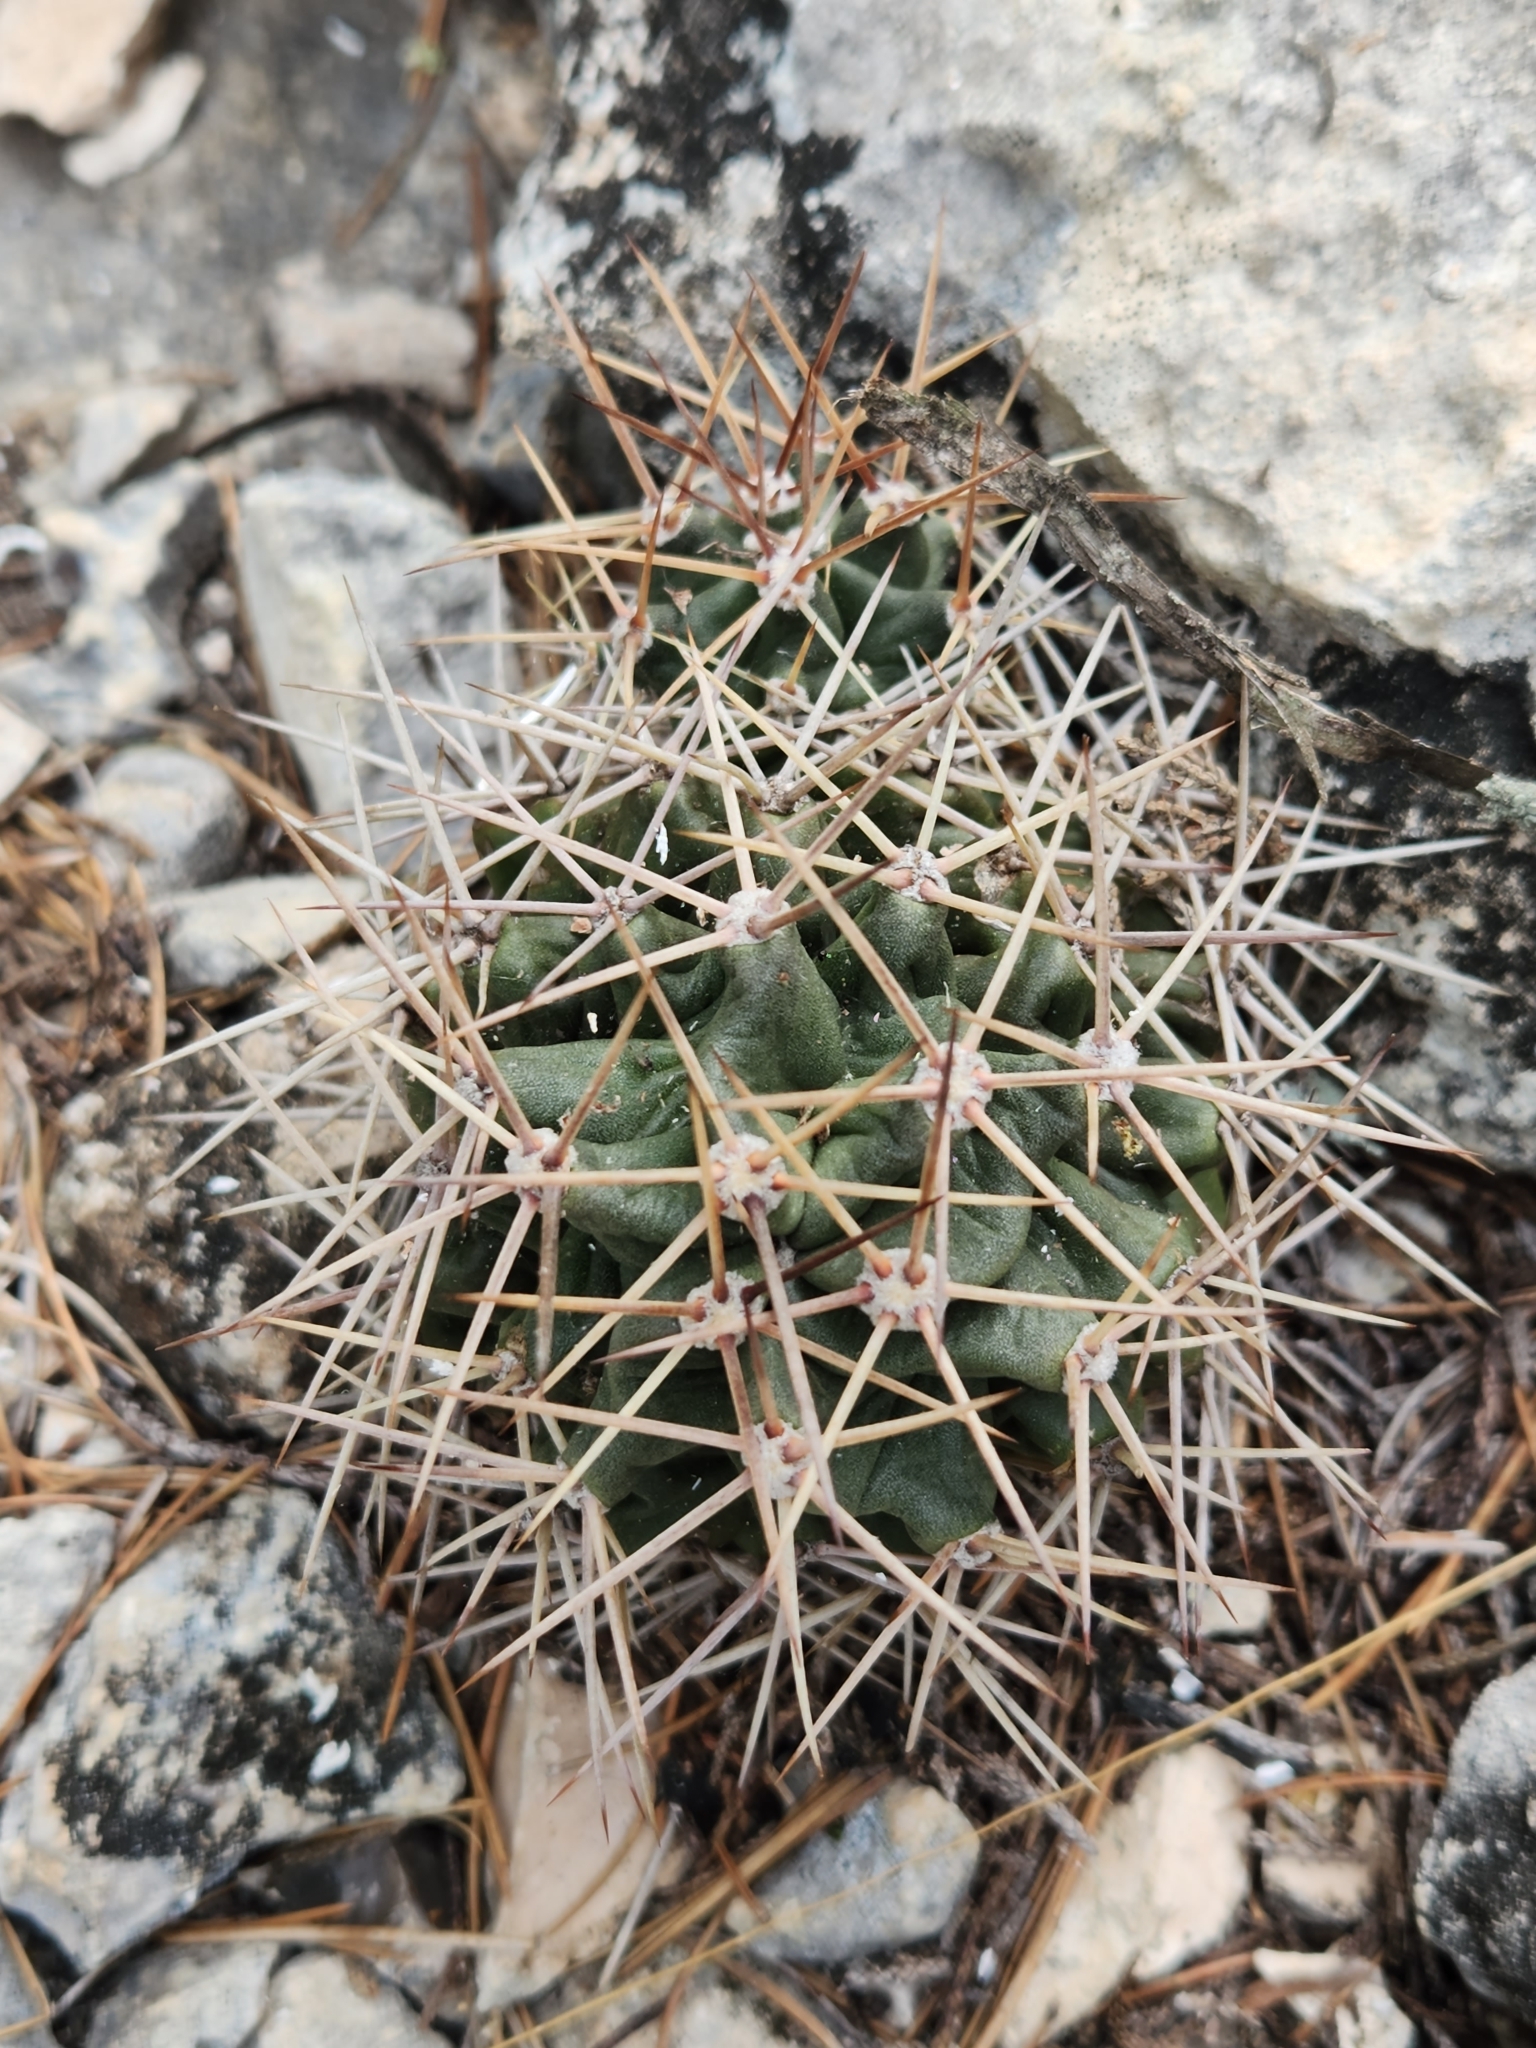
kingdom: Plantae
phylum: Tracheophyta
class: Magnoliopsida
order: Caryophyllales
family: Cactaceae
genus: Echinocereus
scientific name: Echinocereus coccineus
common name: Scarlet hedgehog cactus
